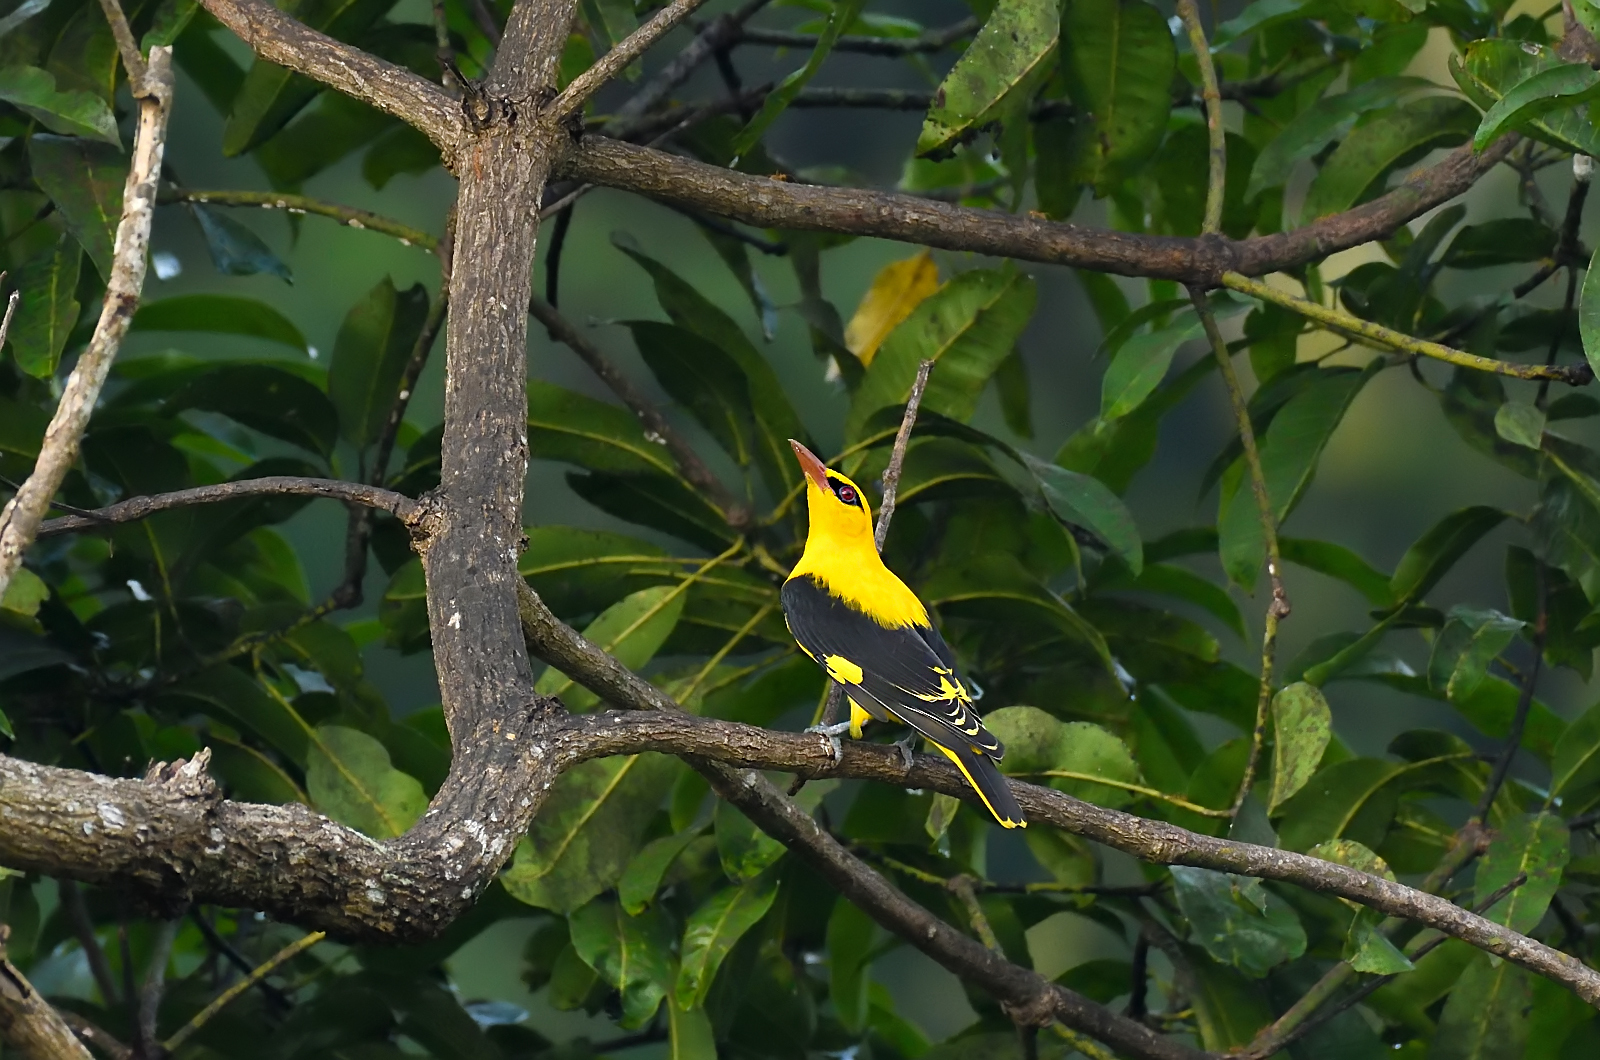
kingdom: Animalia
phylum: Chordata
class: Aves
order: Passeriformes
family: Oriolidae
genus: Oriolus
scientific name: Oriolus kundoo
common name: Indian golden oriole
